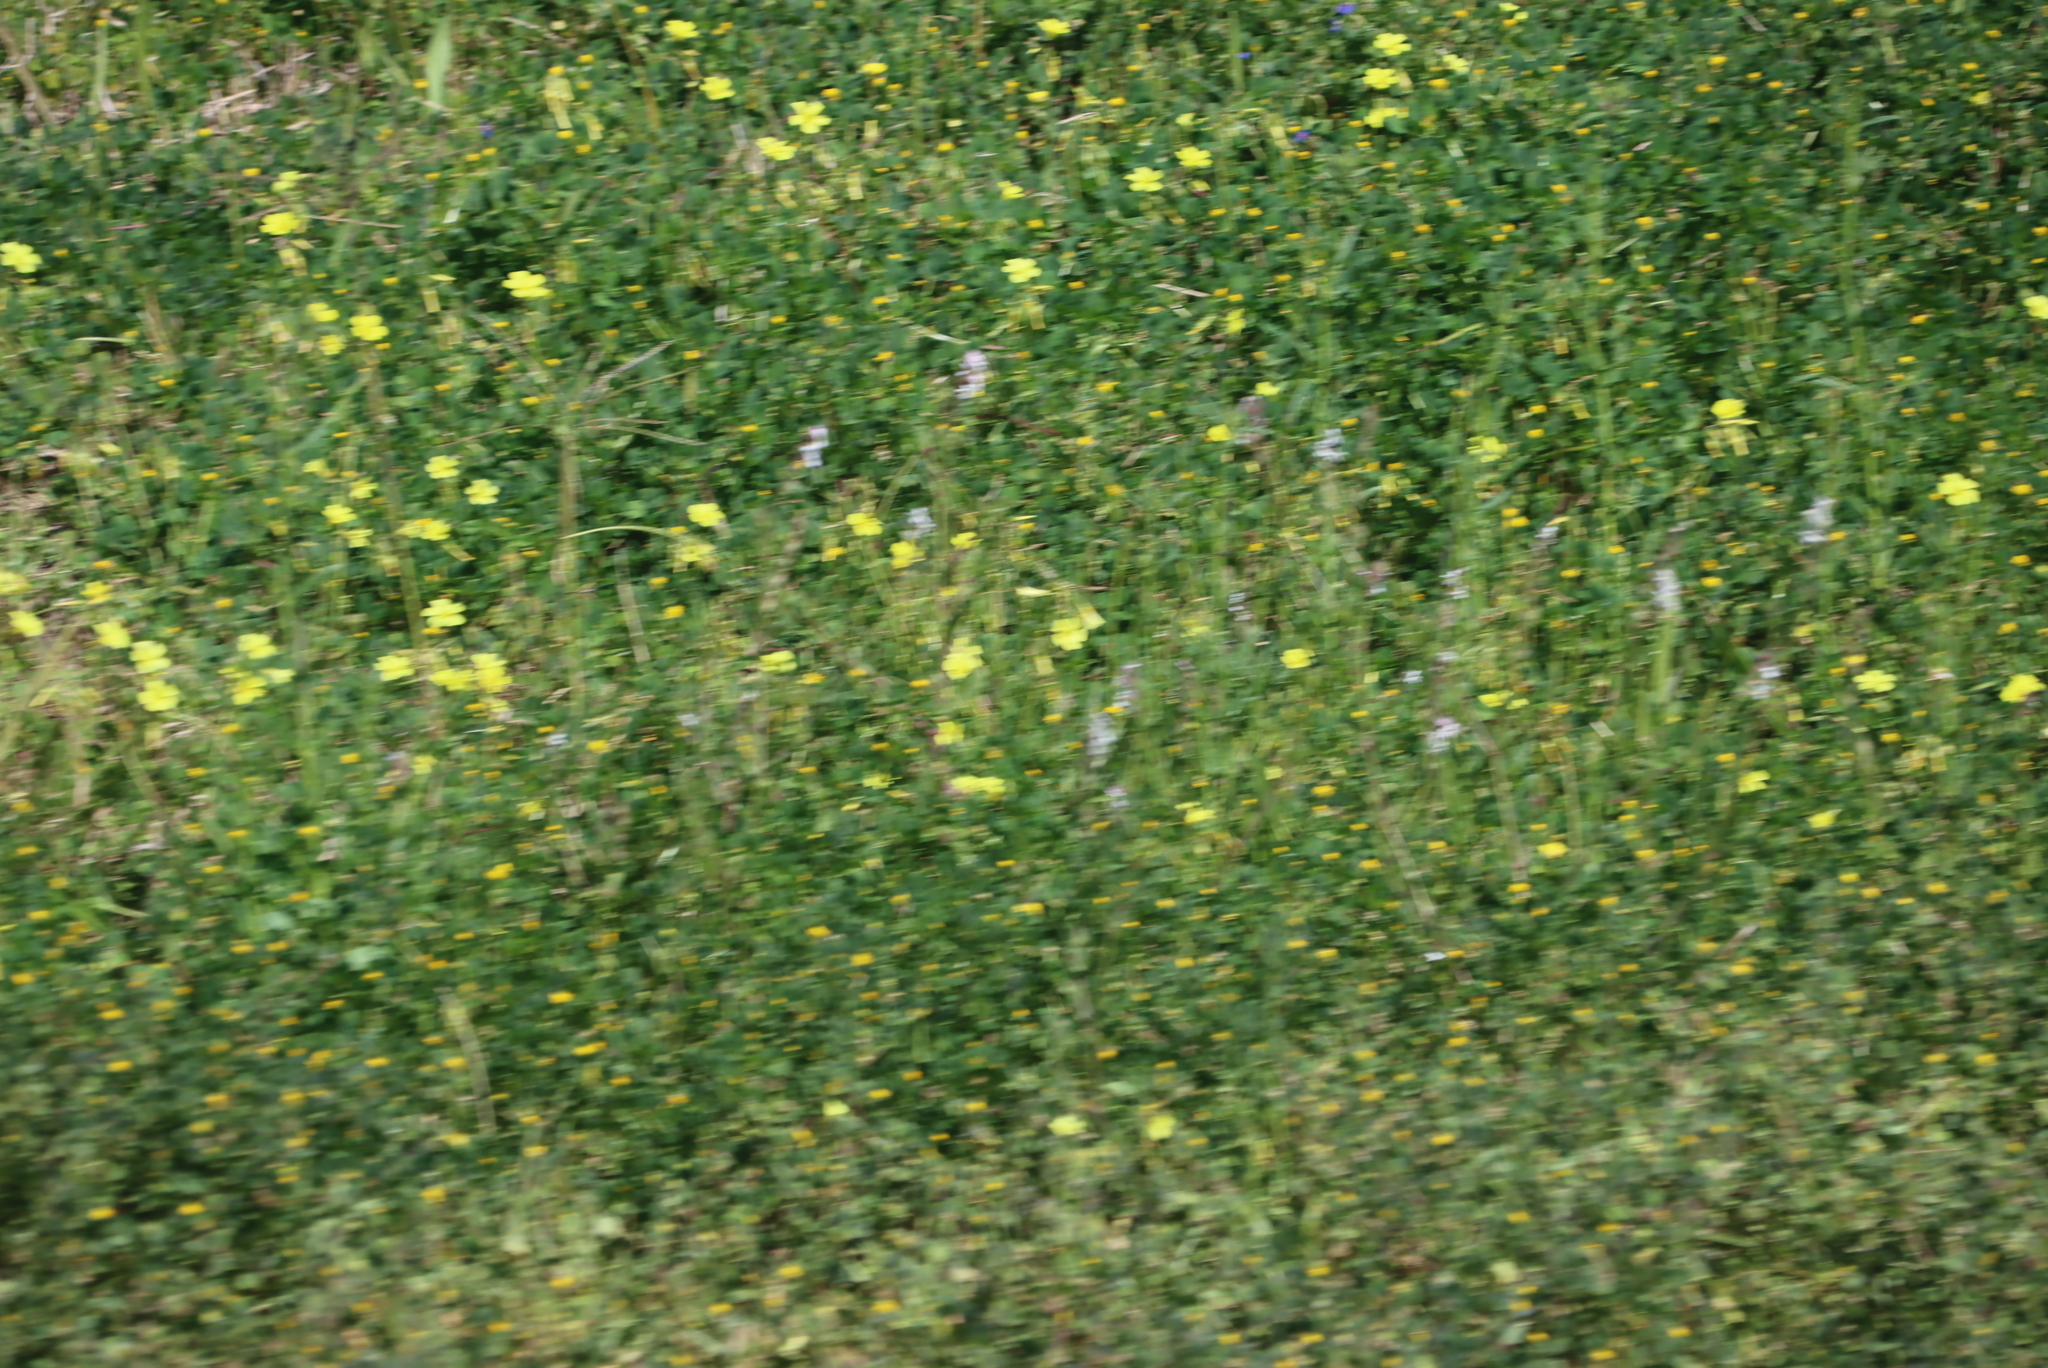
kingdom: Plantae
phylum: Tracheophyta
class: Magnoliopsida
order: Oxalidales
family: Oxalidaceae
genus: Oxalis
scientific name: Oxalis pes-caprae
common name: Bermuda-buttercup
